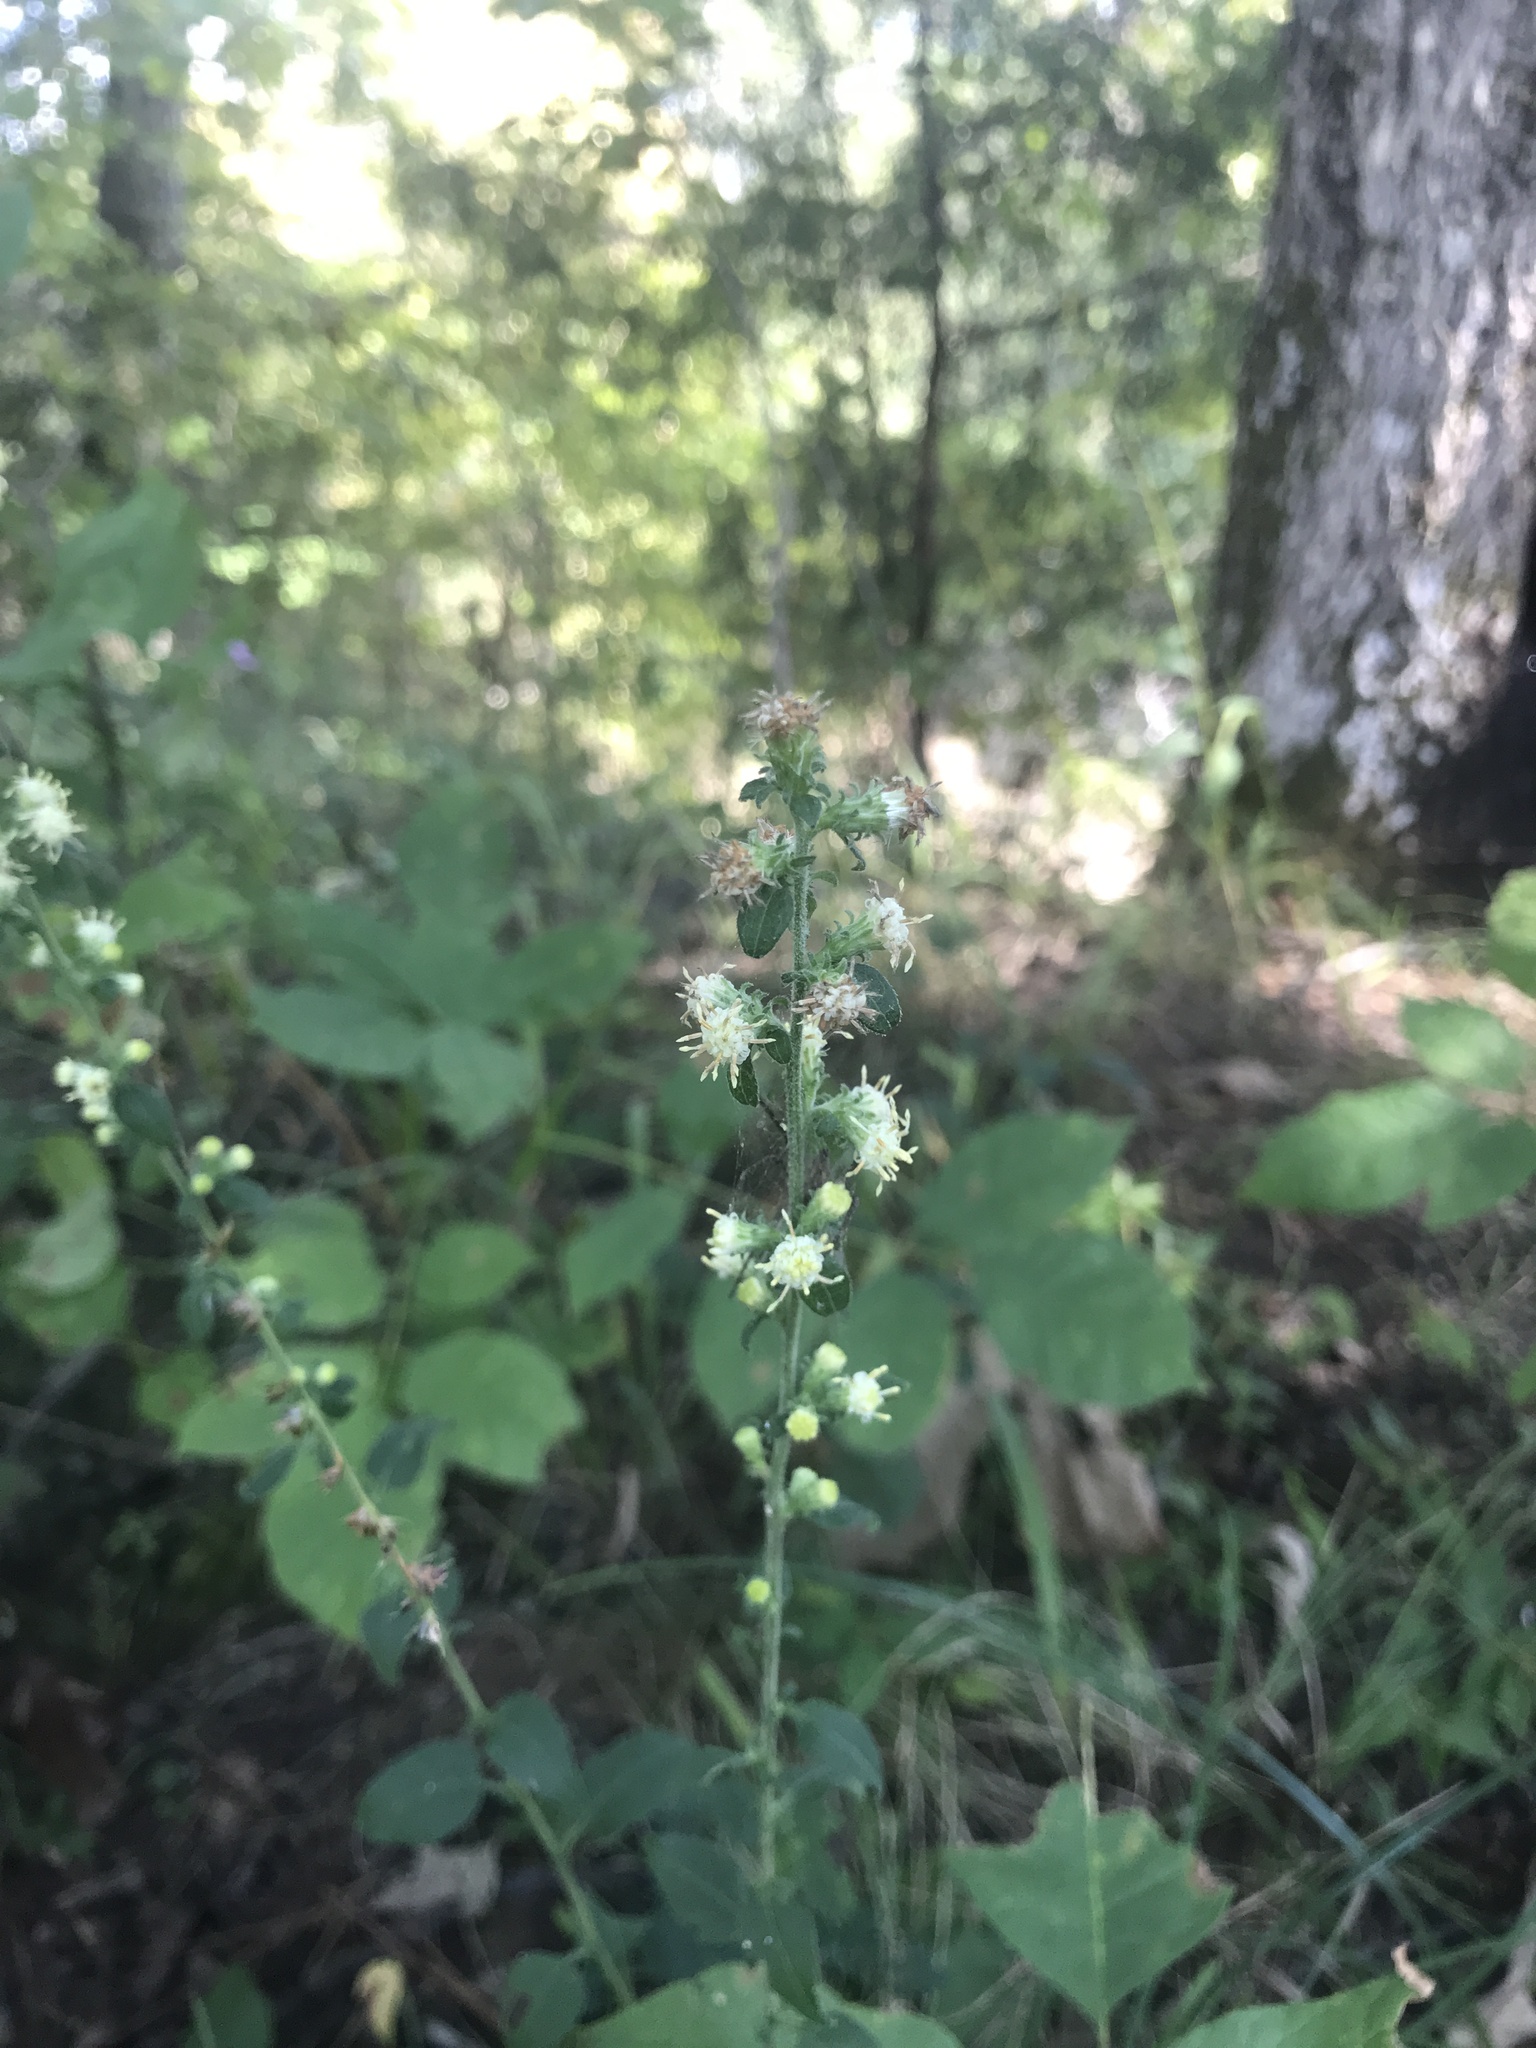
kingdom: Plantae
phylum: Tracheophyta
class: Magnoliopsida
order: Asterales
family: Asteraceae
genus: Solidago
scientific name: Solidago discoidea
